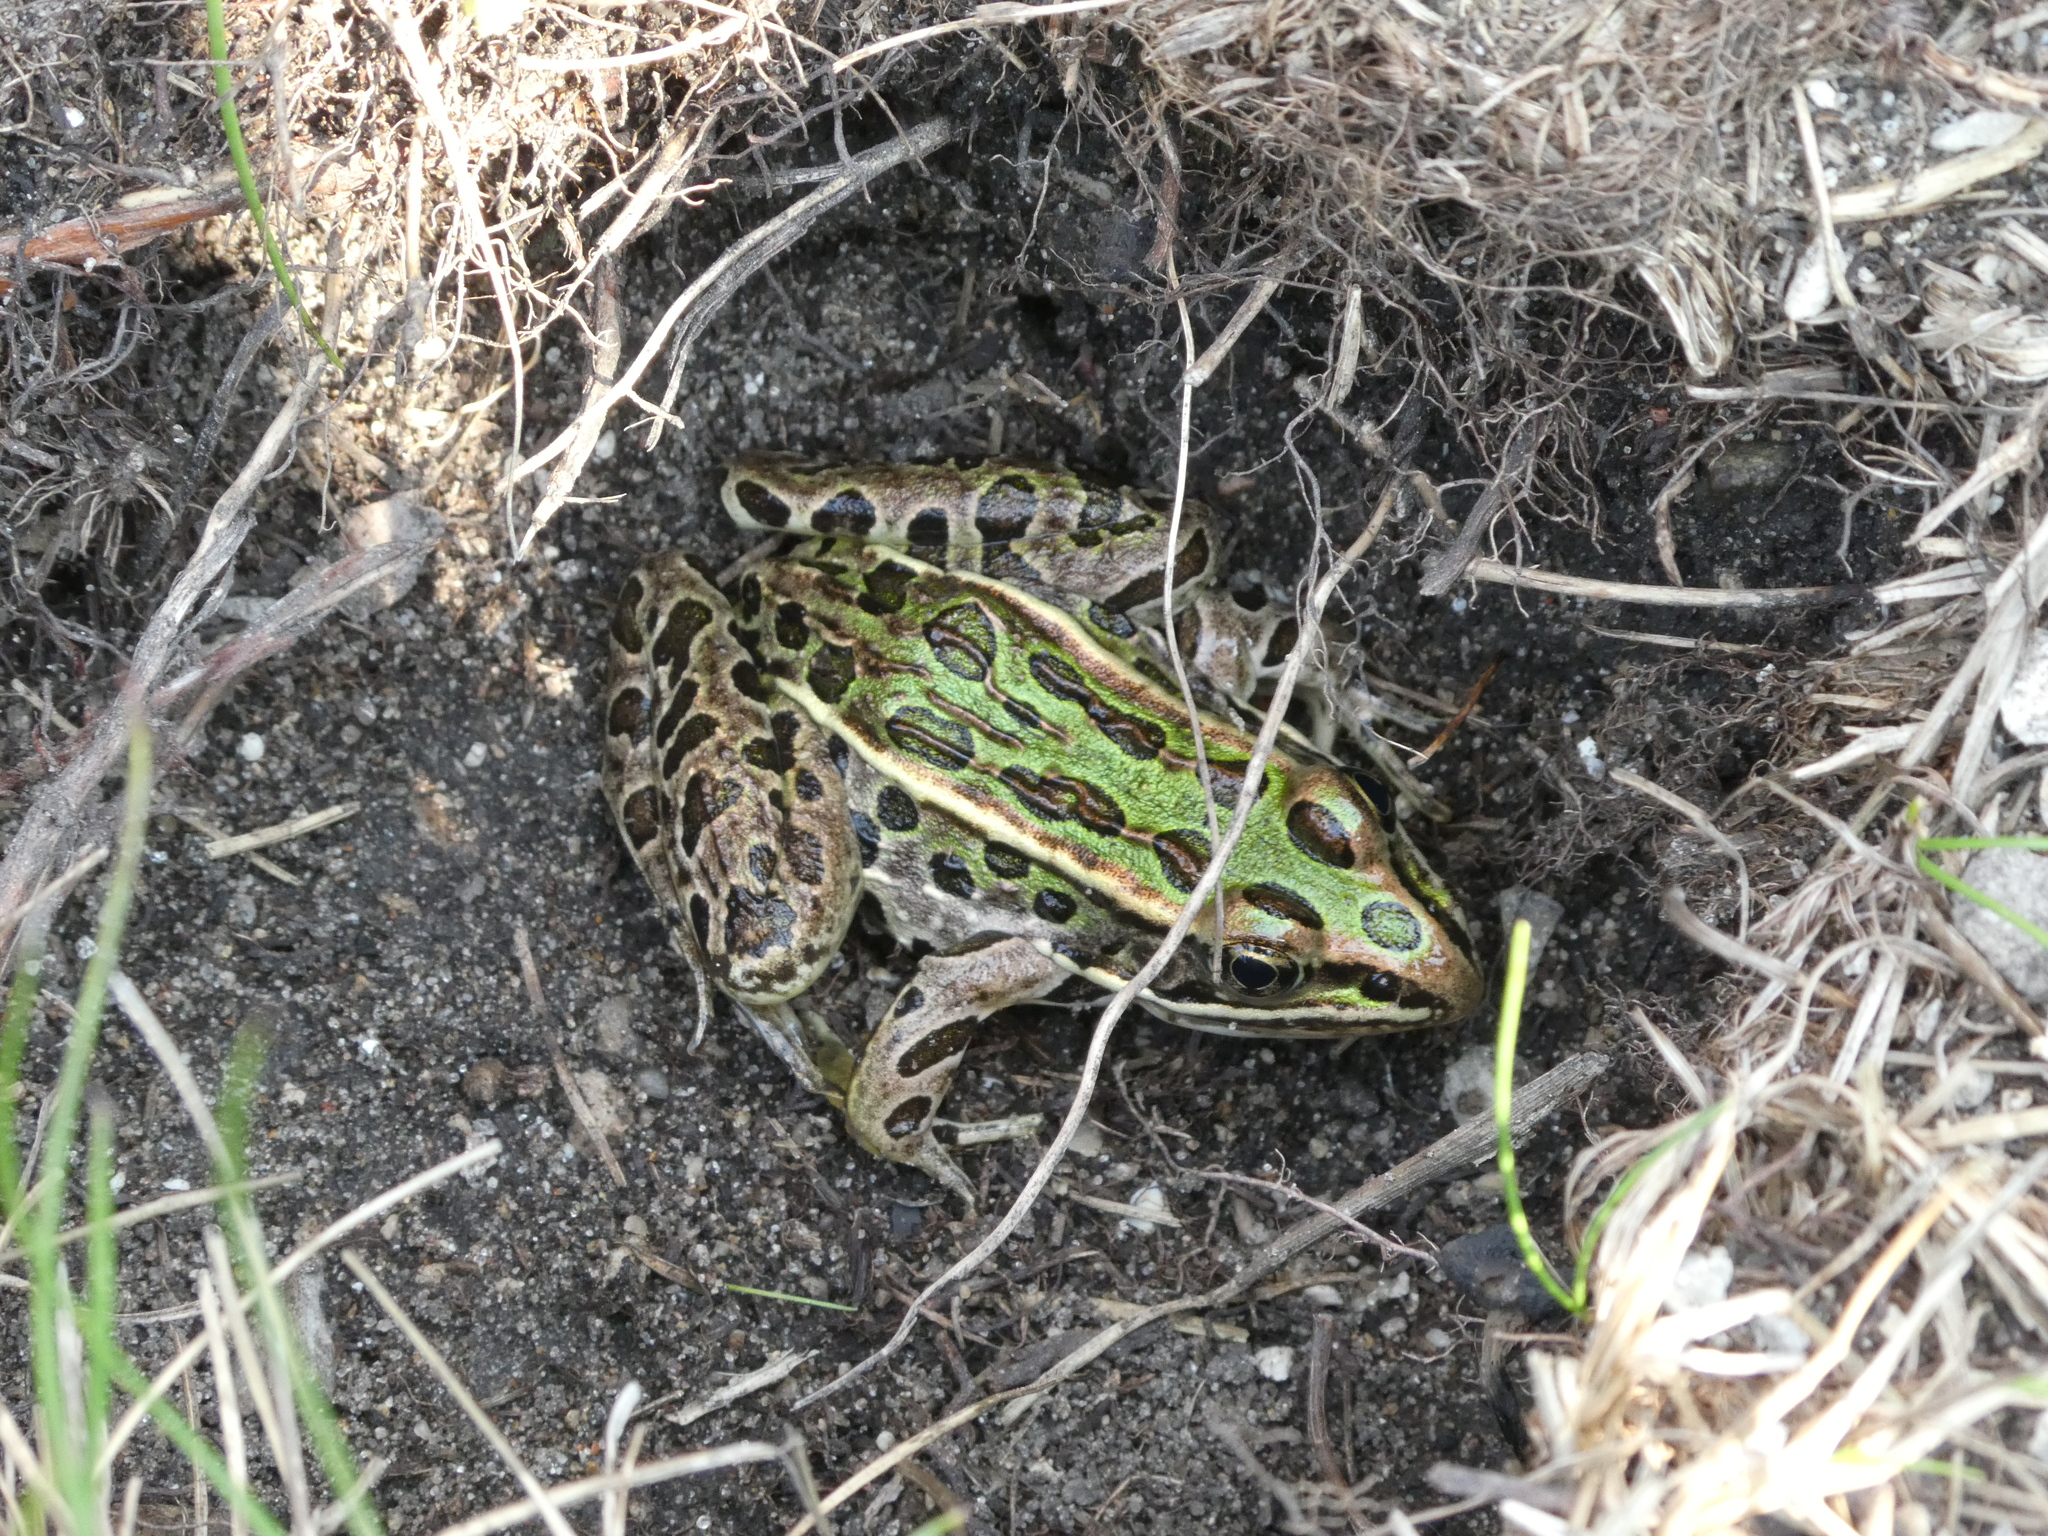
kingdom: Animalia
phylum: Chordata
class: Amphibia
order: Anura
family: Ranidae
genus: Lithobates
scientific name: Lithobates pipiens
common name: Northern leopard frog
